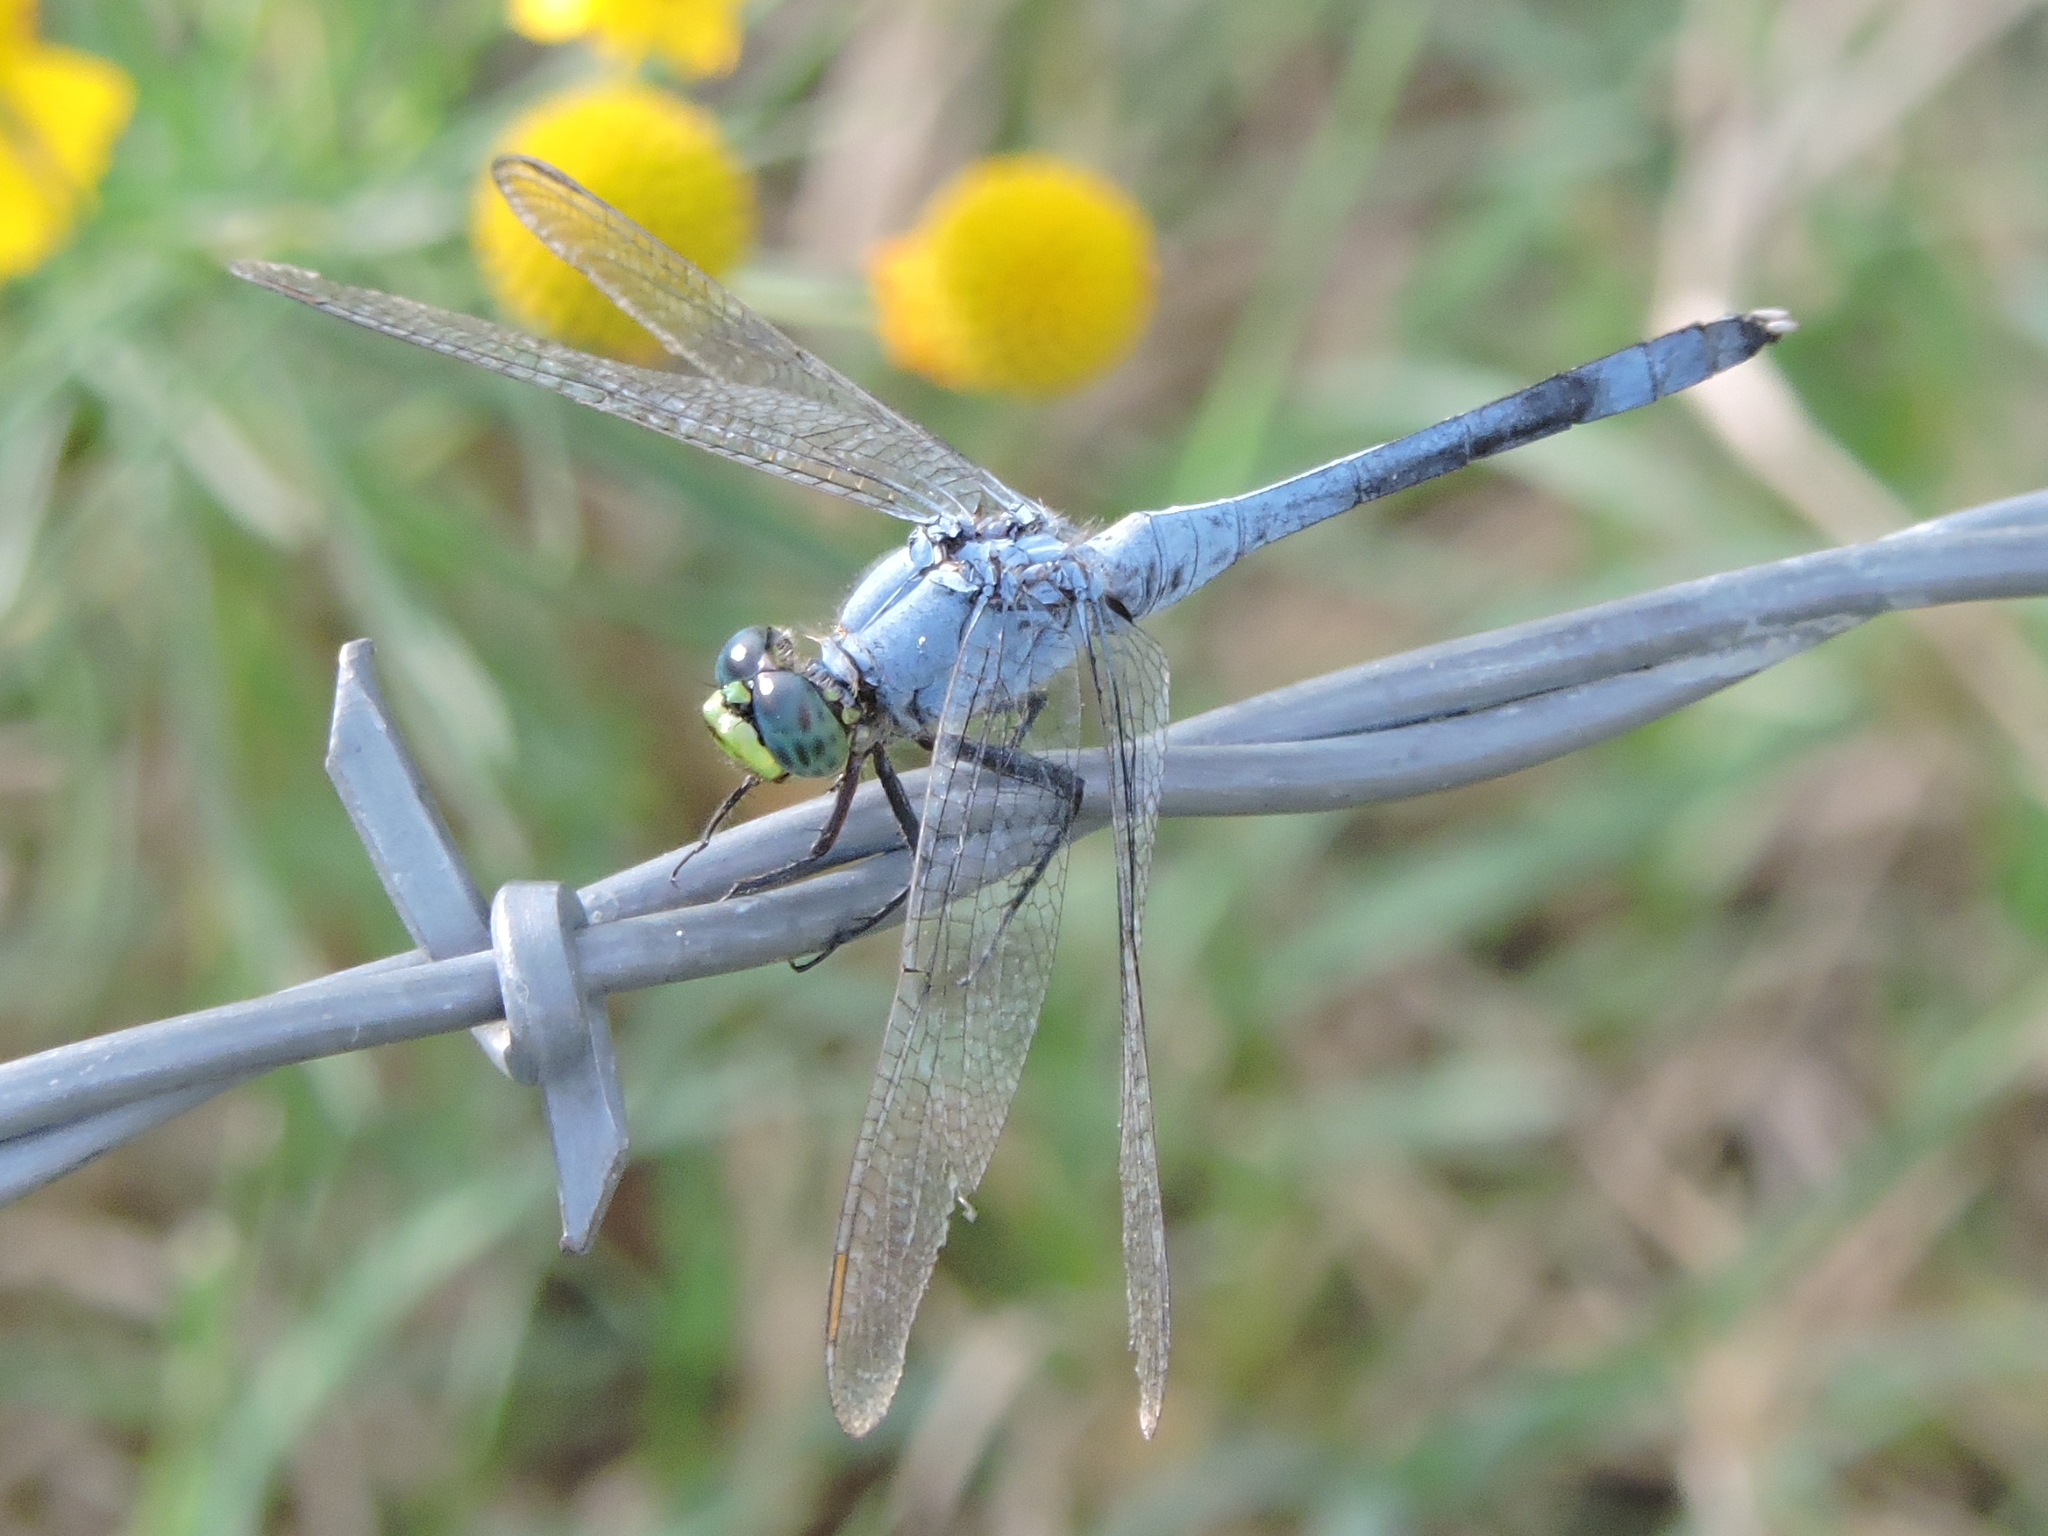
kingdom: Animalia
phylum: Arthropoda
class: Insecta
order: Odonata
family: Libellulidae
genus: Erythemis
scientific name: Erythemis simplicicollis
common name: Eastern pondhawk
